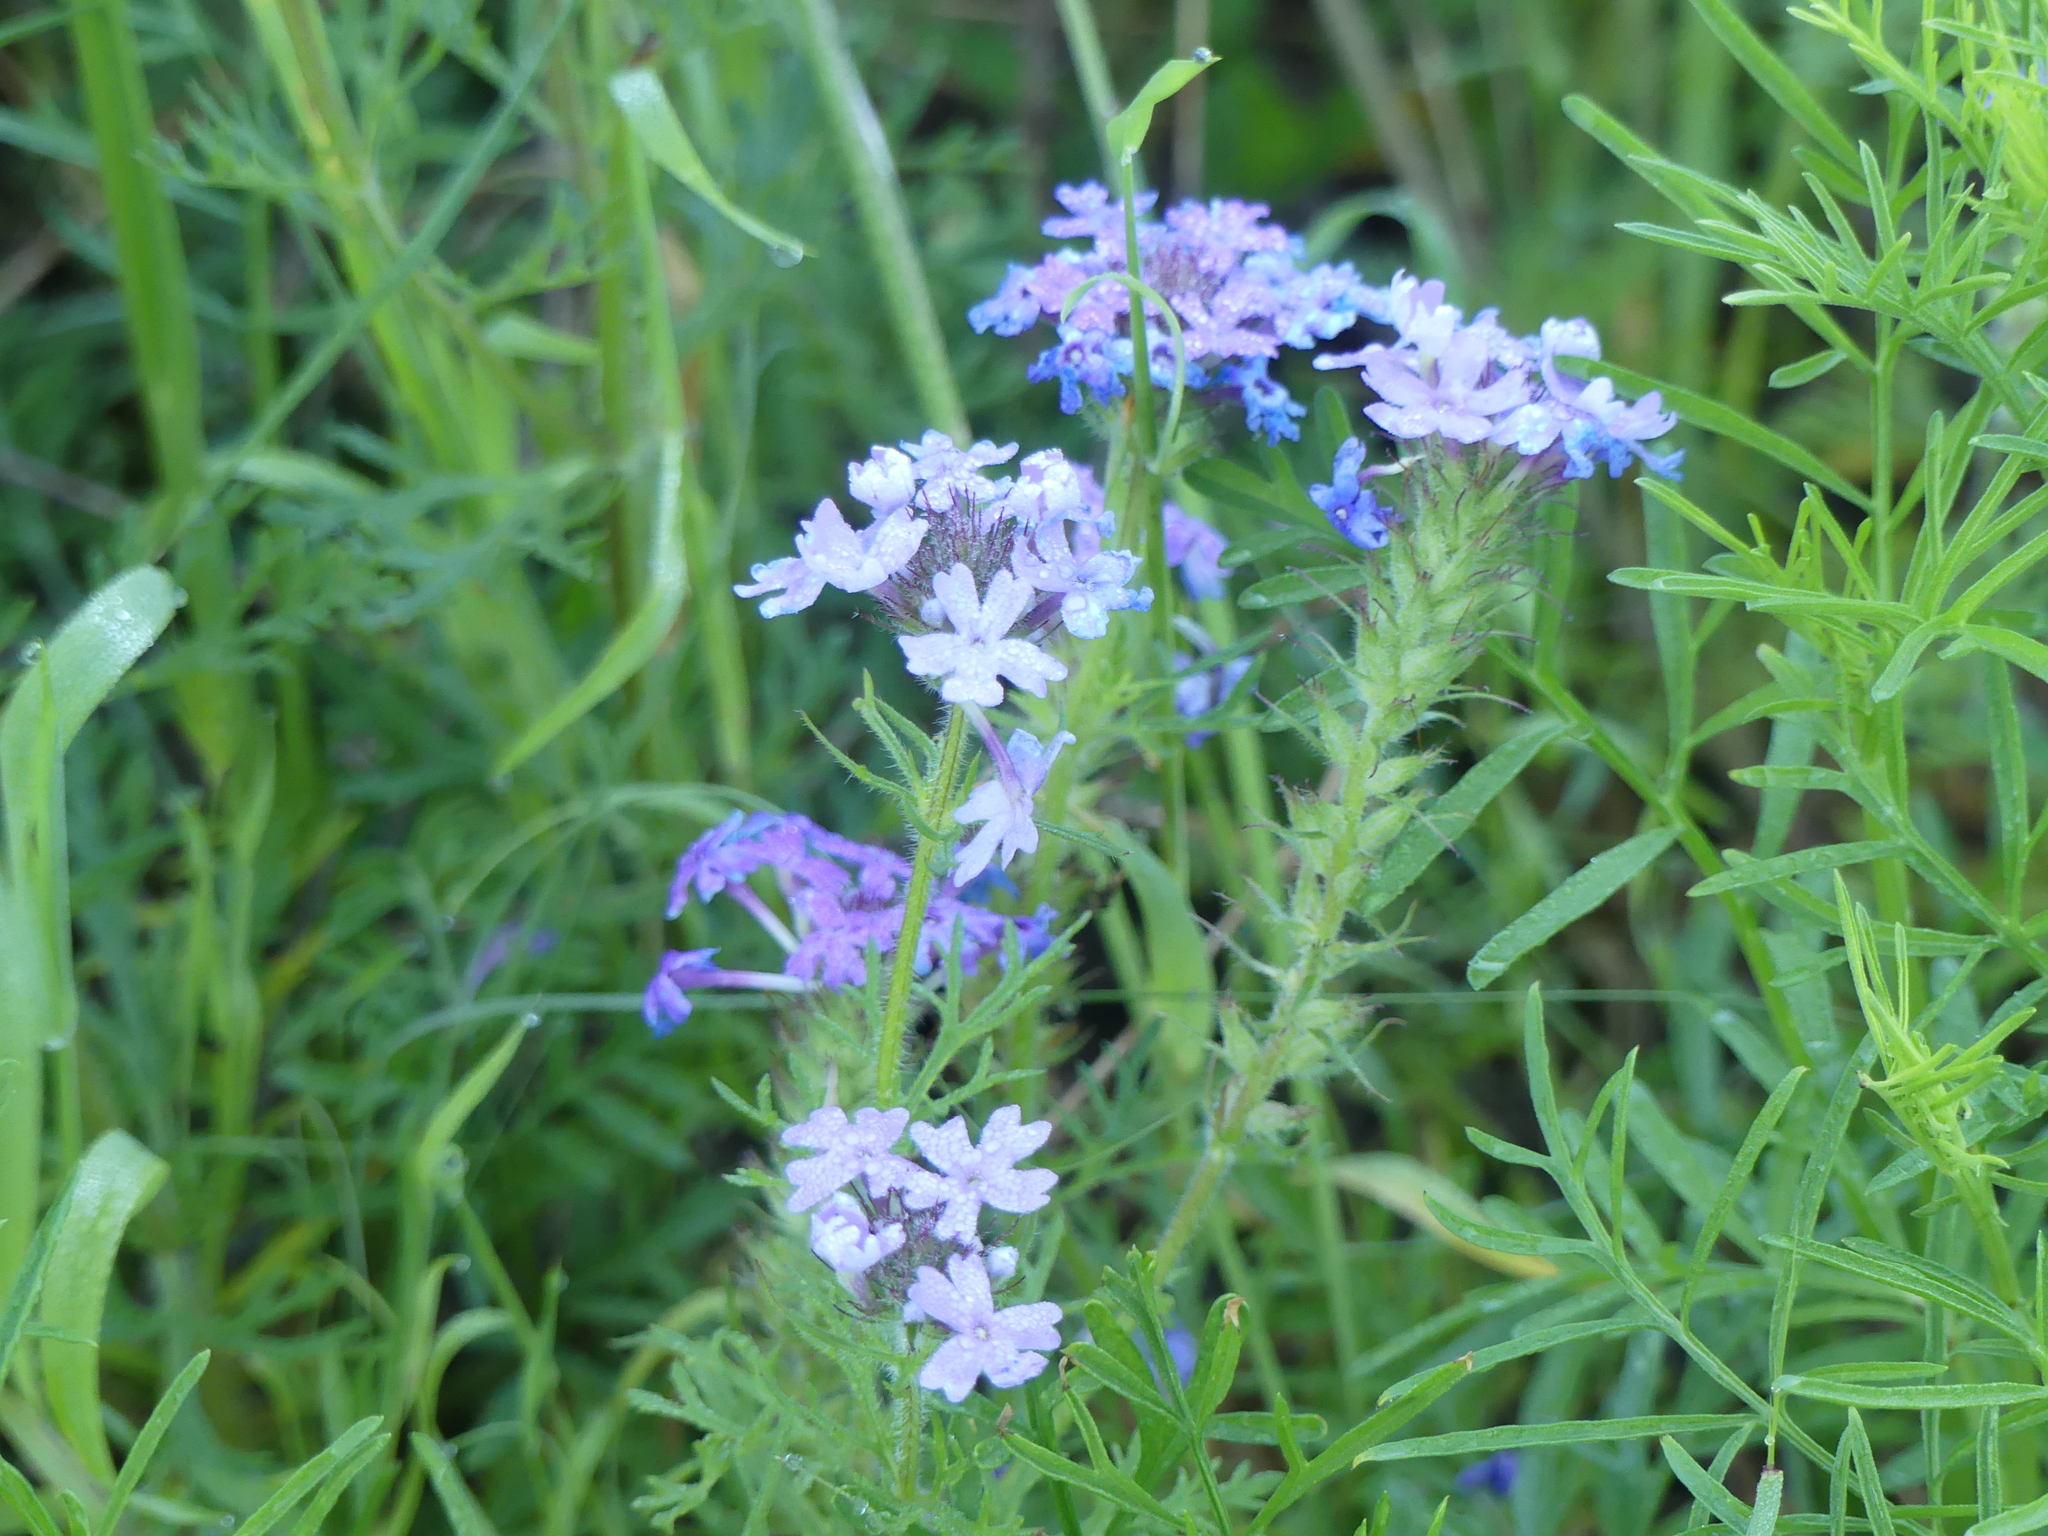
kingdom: Plantae
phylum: Tracheophyta
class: Magnoliopsida
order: Lamiales
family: Verbenaceae
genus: Verbena
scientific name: Verbena bipinnatifida
